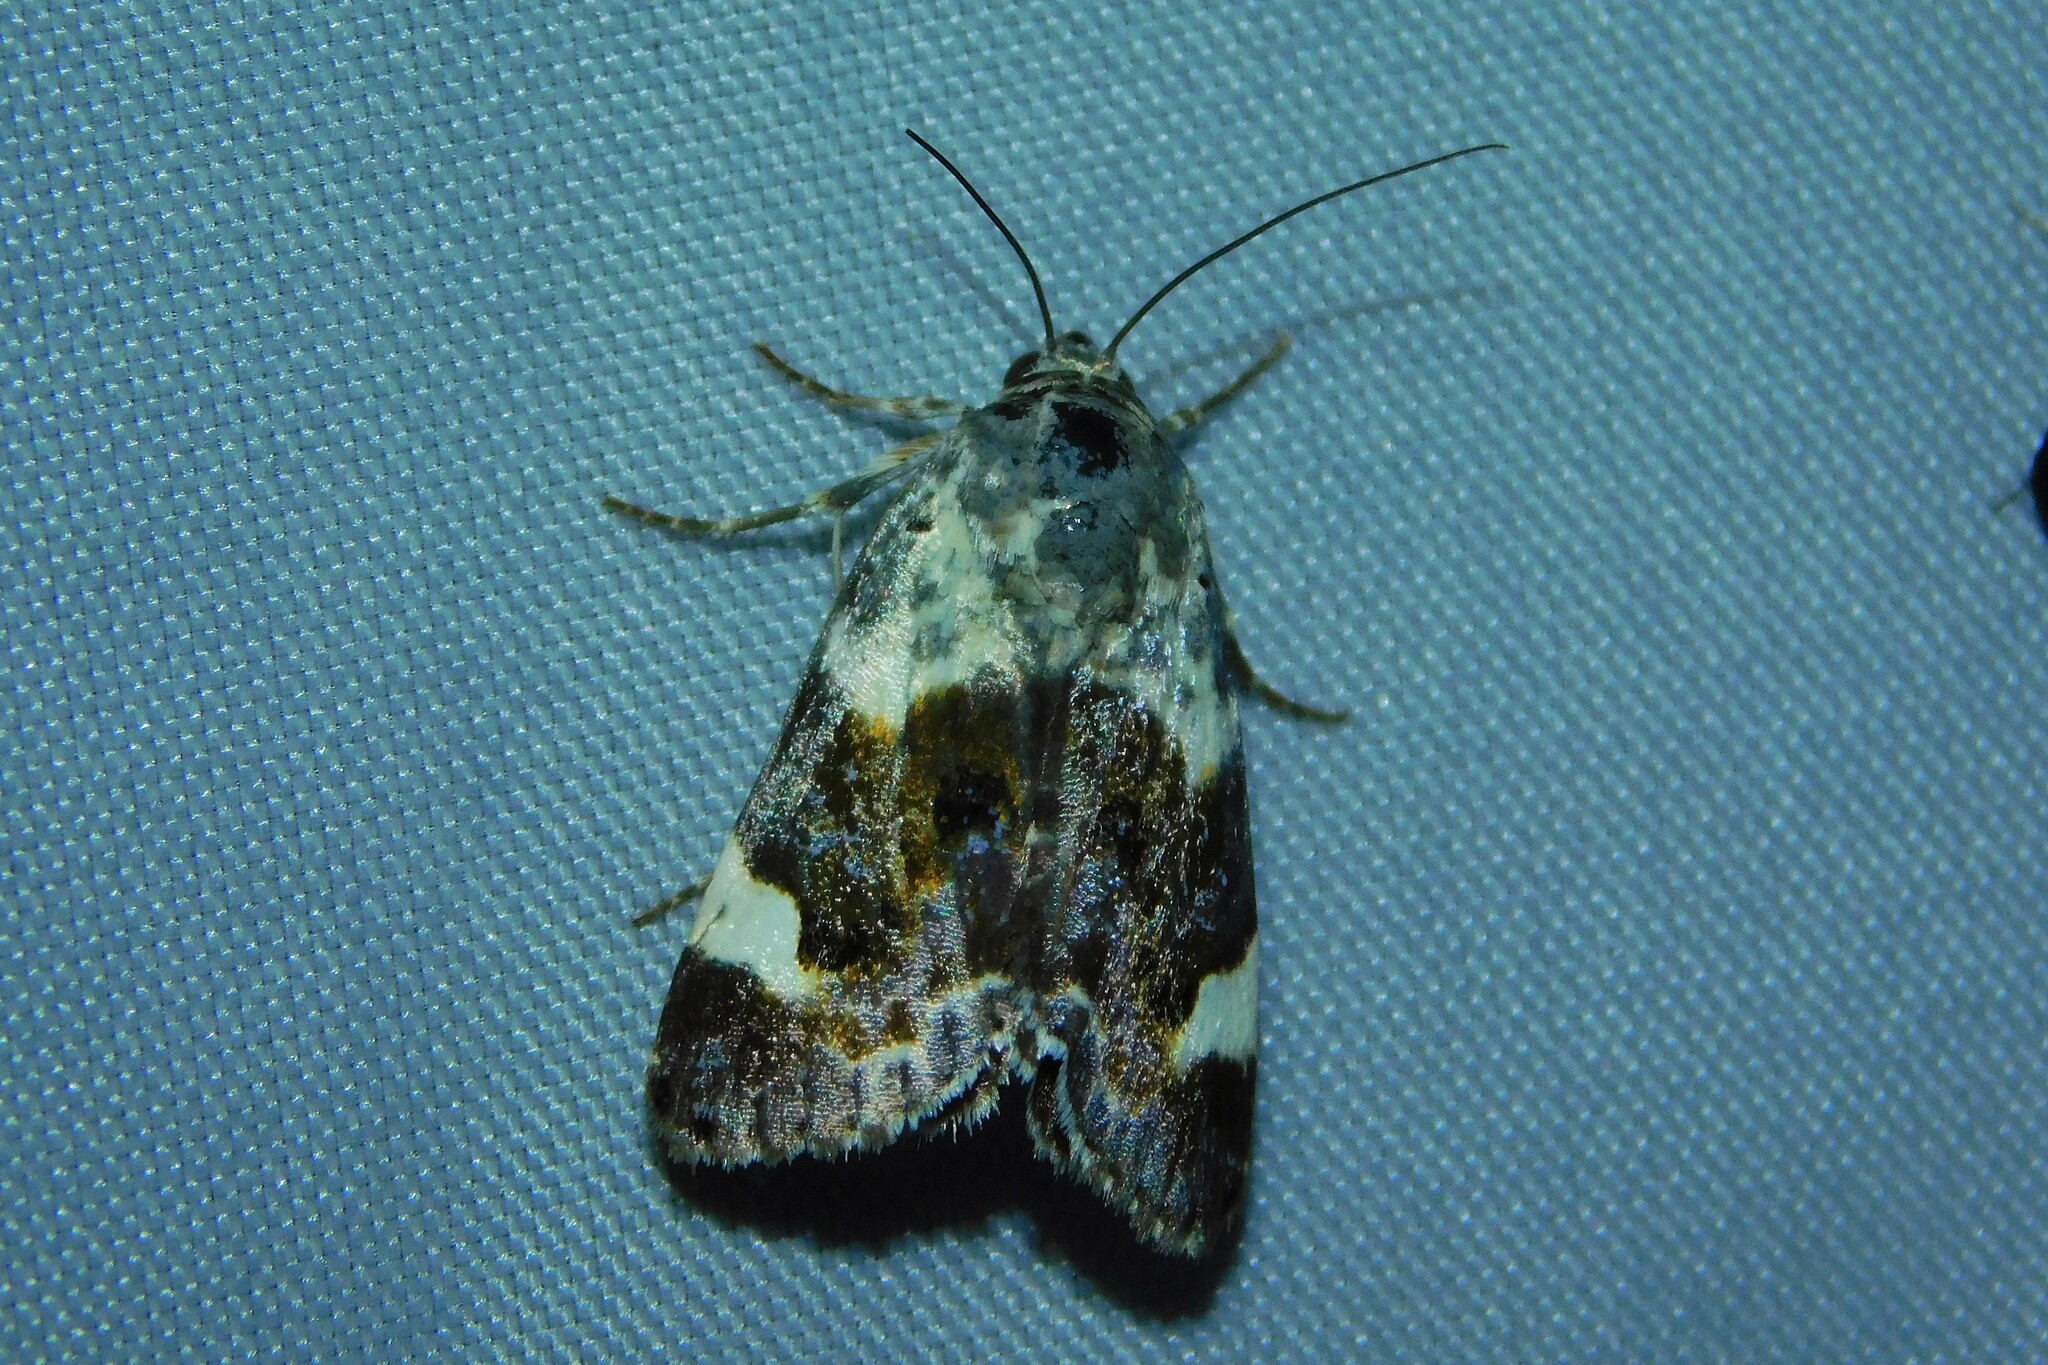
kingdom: Animalia
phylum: Arthropoda
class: Insecta
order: Lepidoptera
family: Noctuidae
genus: Acontia
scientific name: Acontia lucida
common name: Pale shoulder
